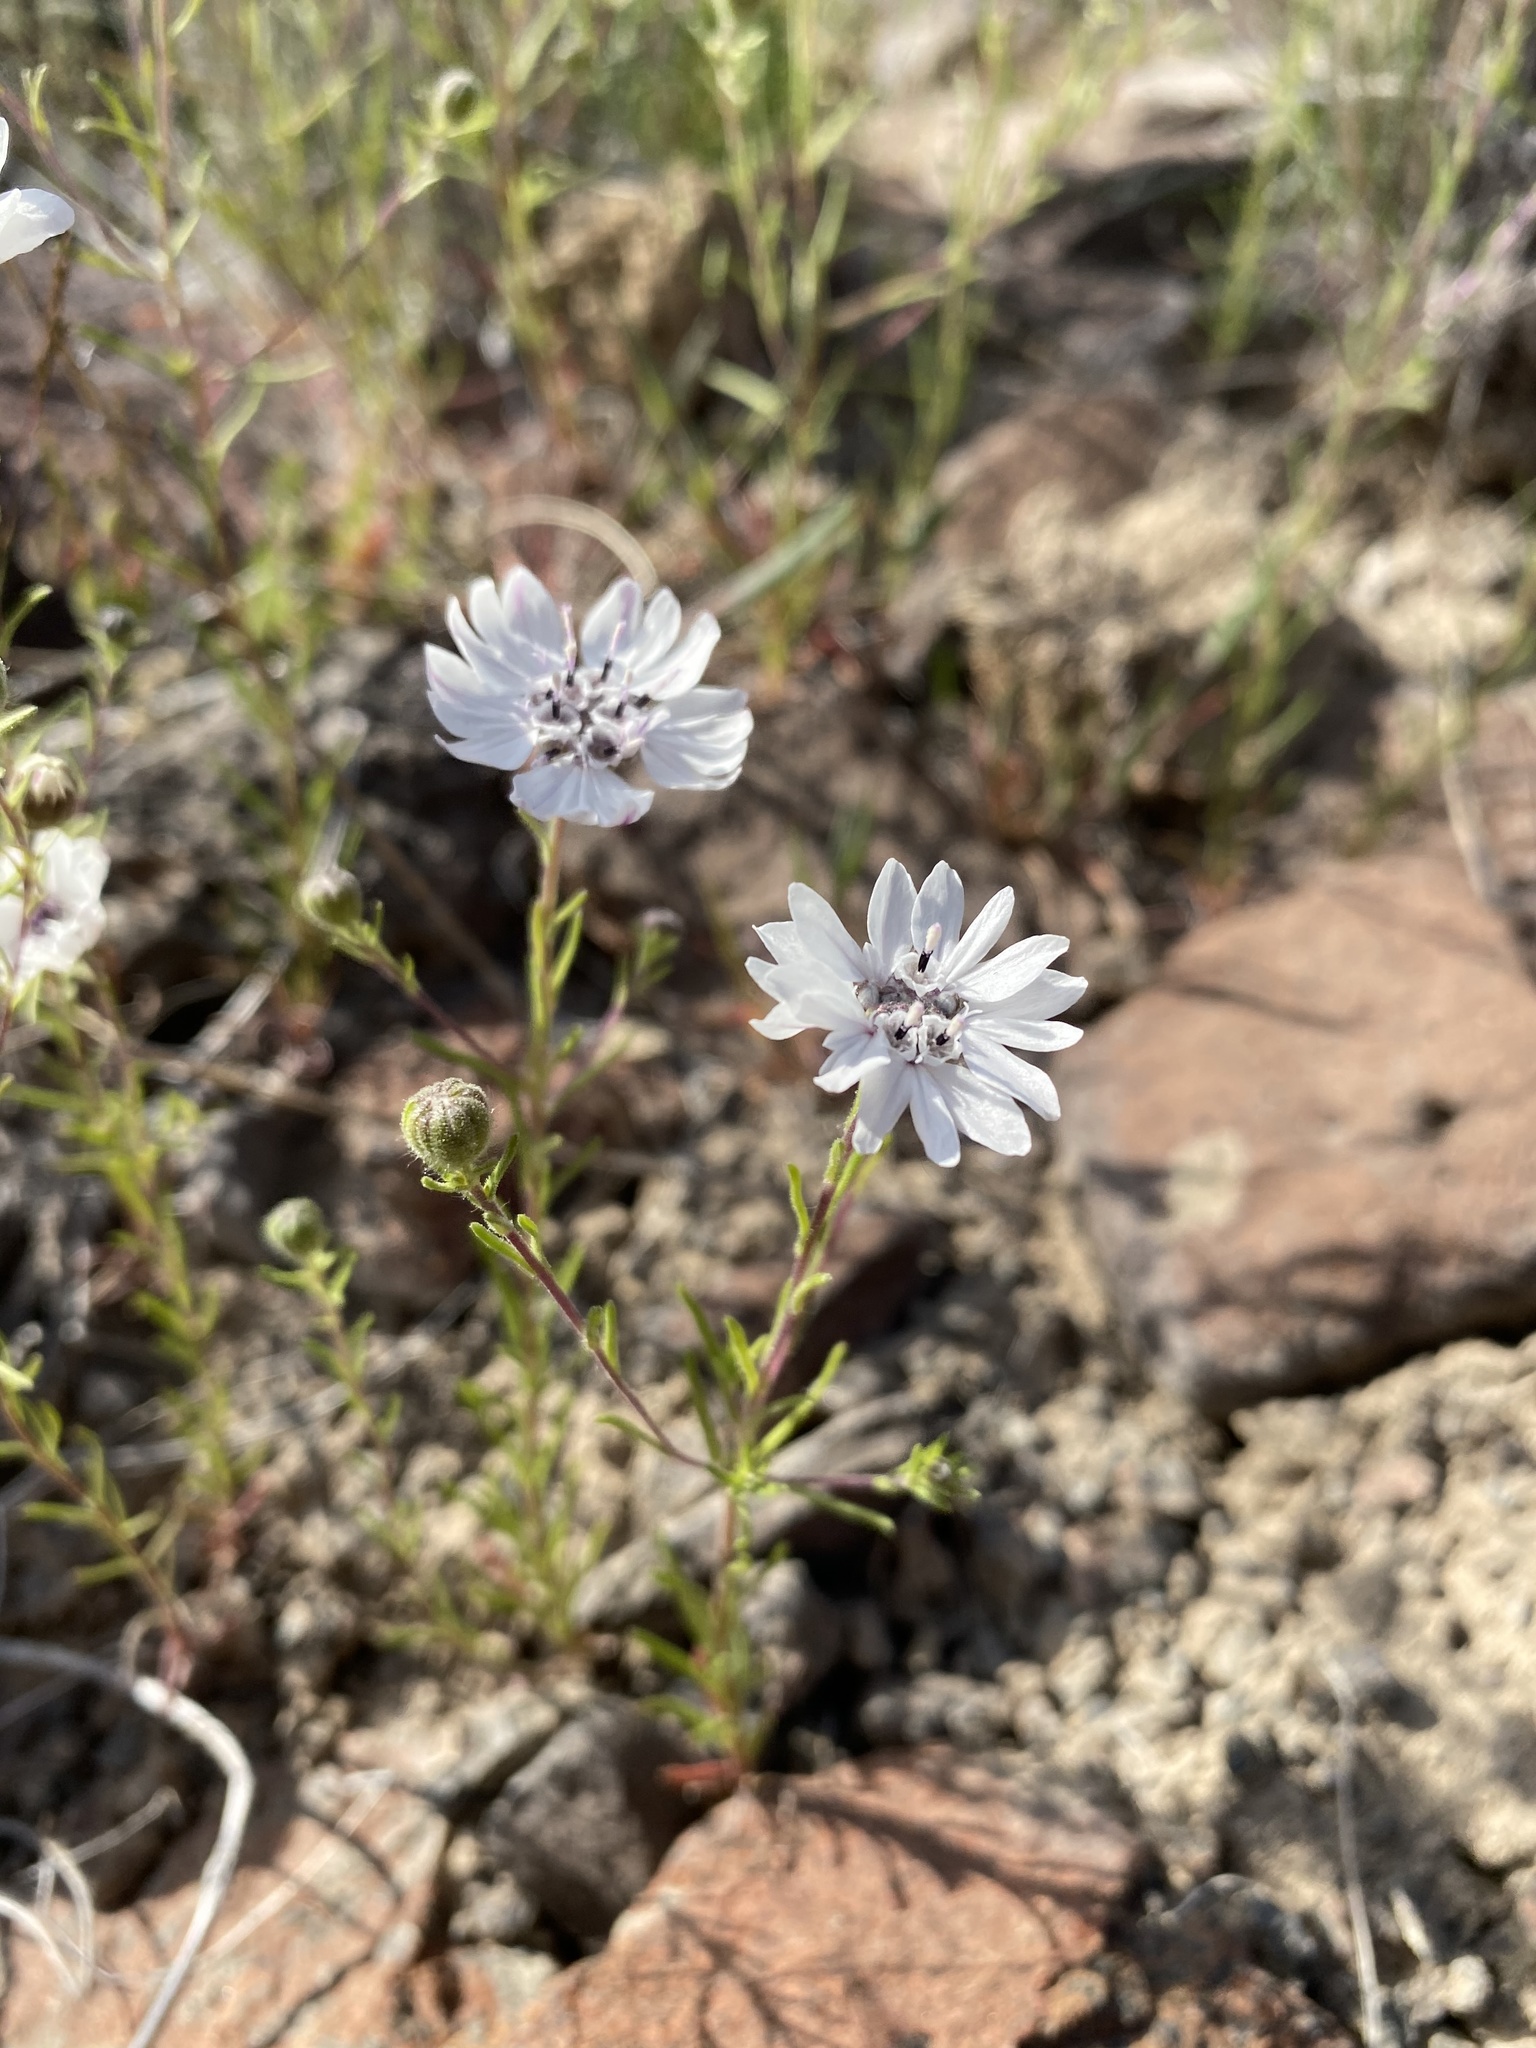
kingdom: Plantae
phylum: Tracheophyta
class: Magnoliopsida
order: Asterales
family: Asteraceae
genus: Blepharipappus
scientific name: Blepharipappus scaber
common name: Rough blepharipappus
